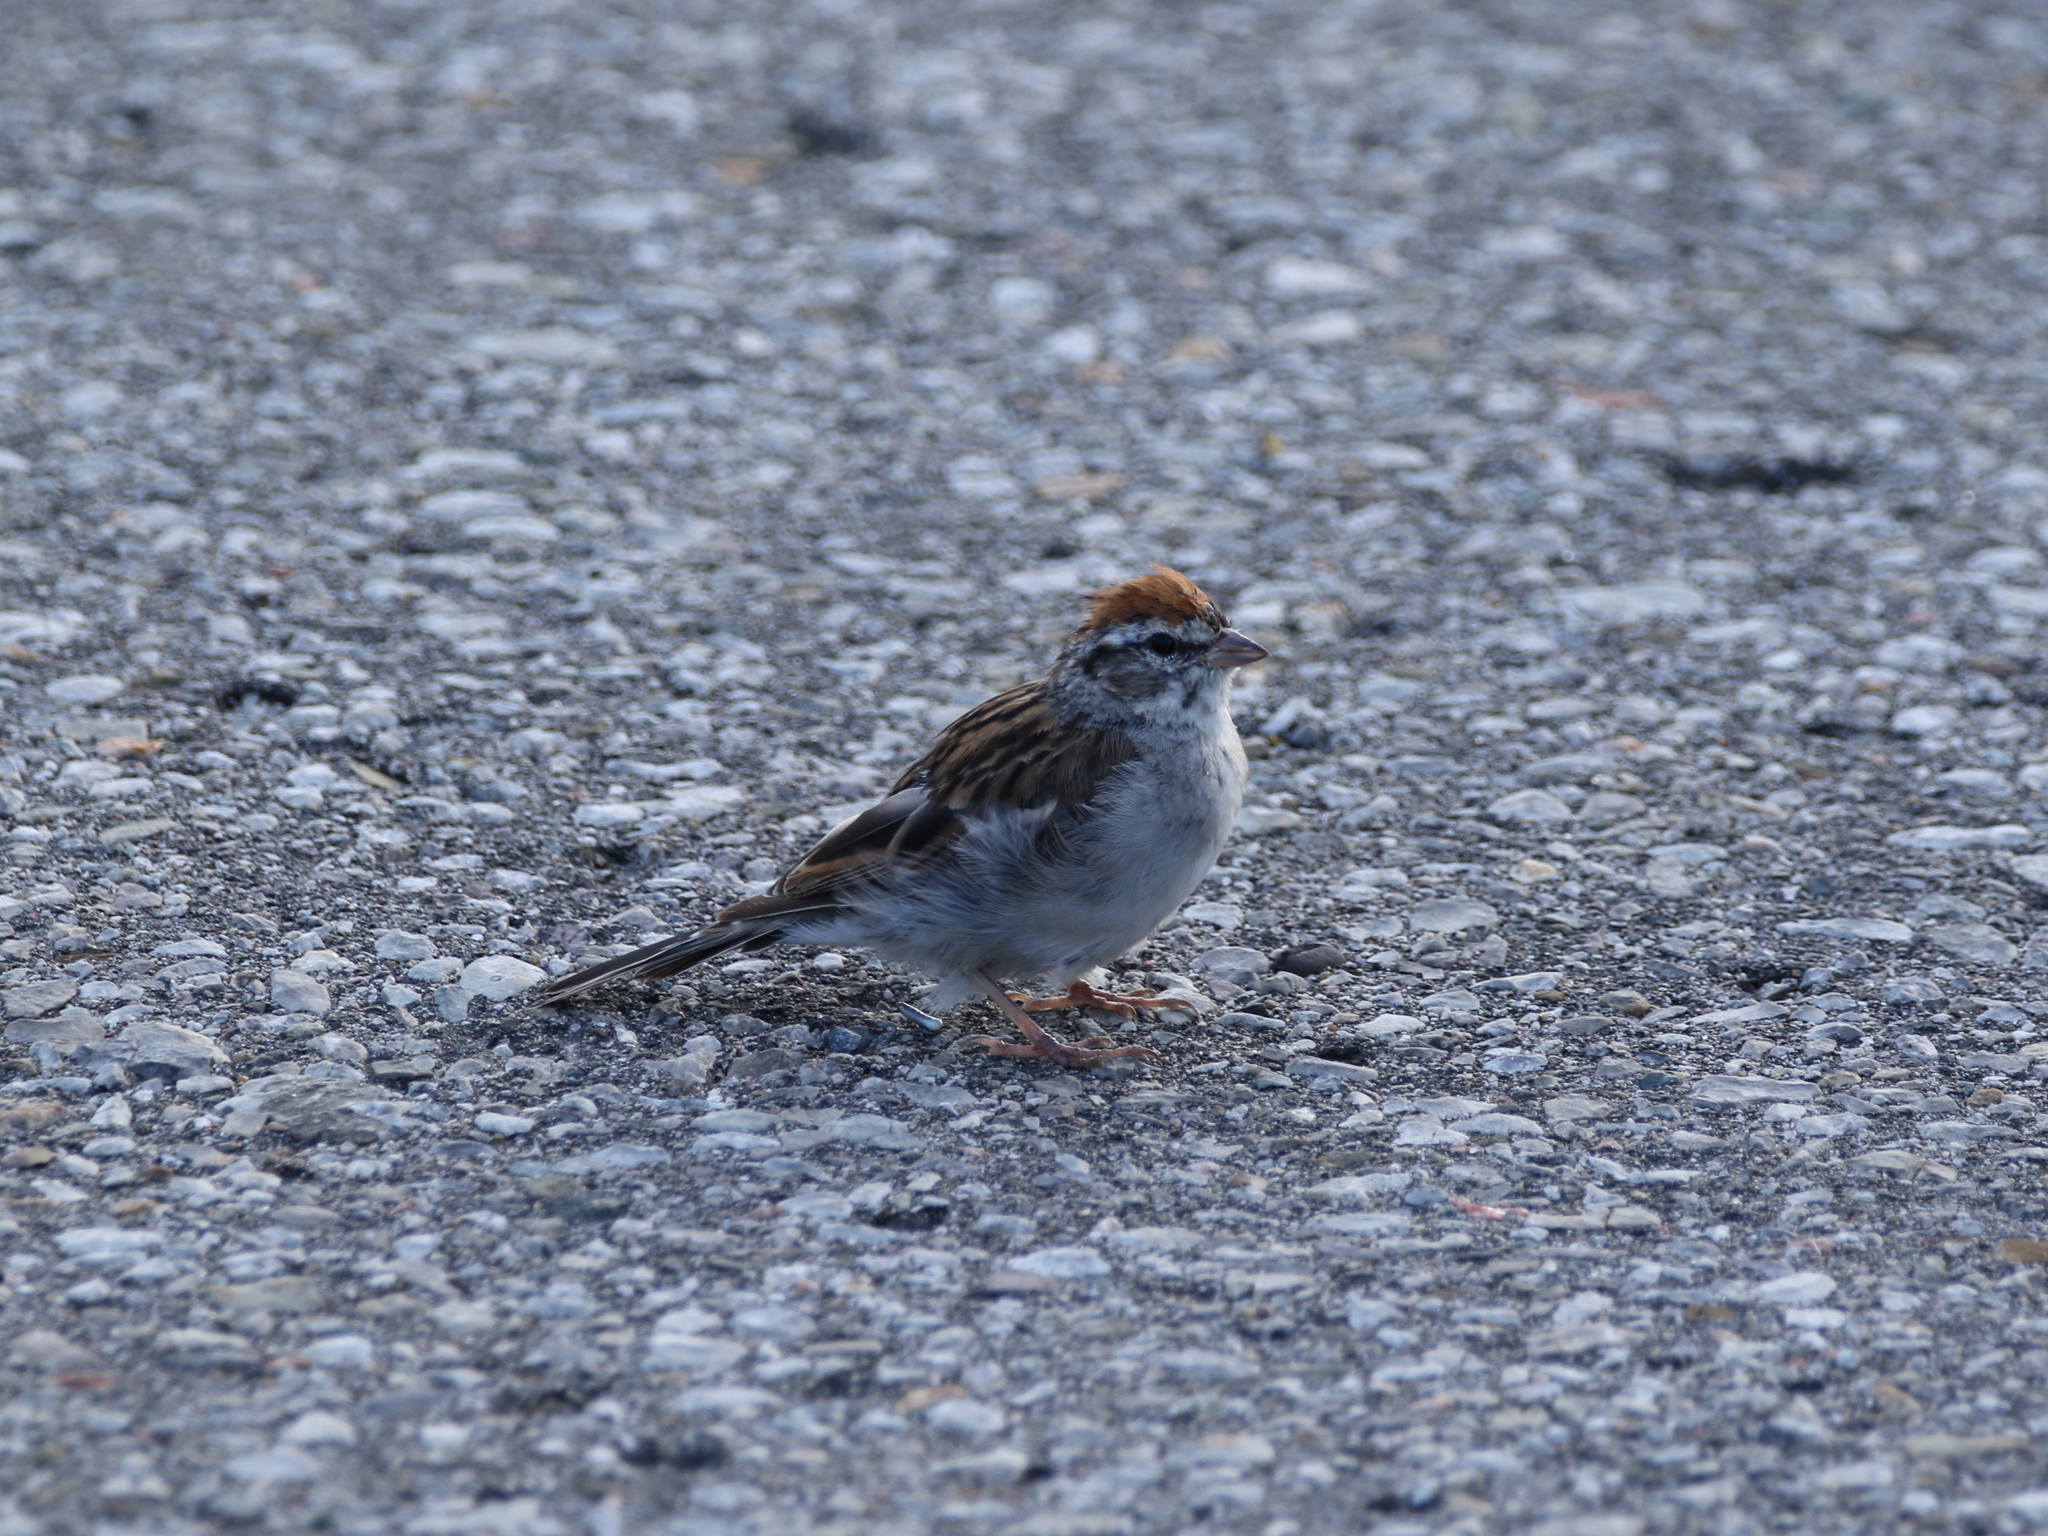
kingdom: Animalia
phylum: Chordata
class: Aves
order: Passeriformes
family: Passerellidae
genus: Spizella
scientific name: Spizella passerina
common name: Chipping sparrow
